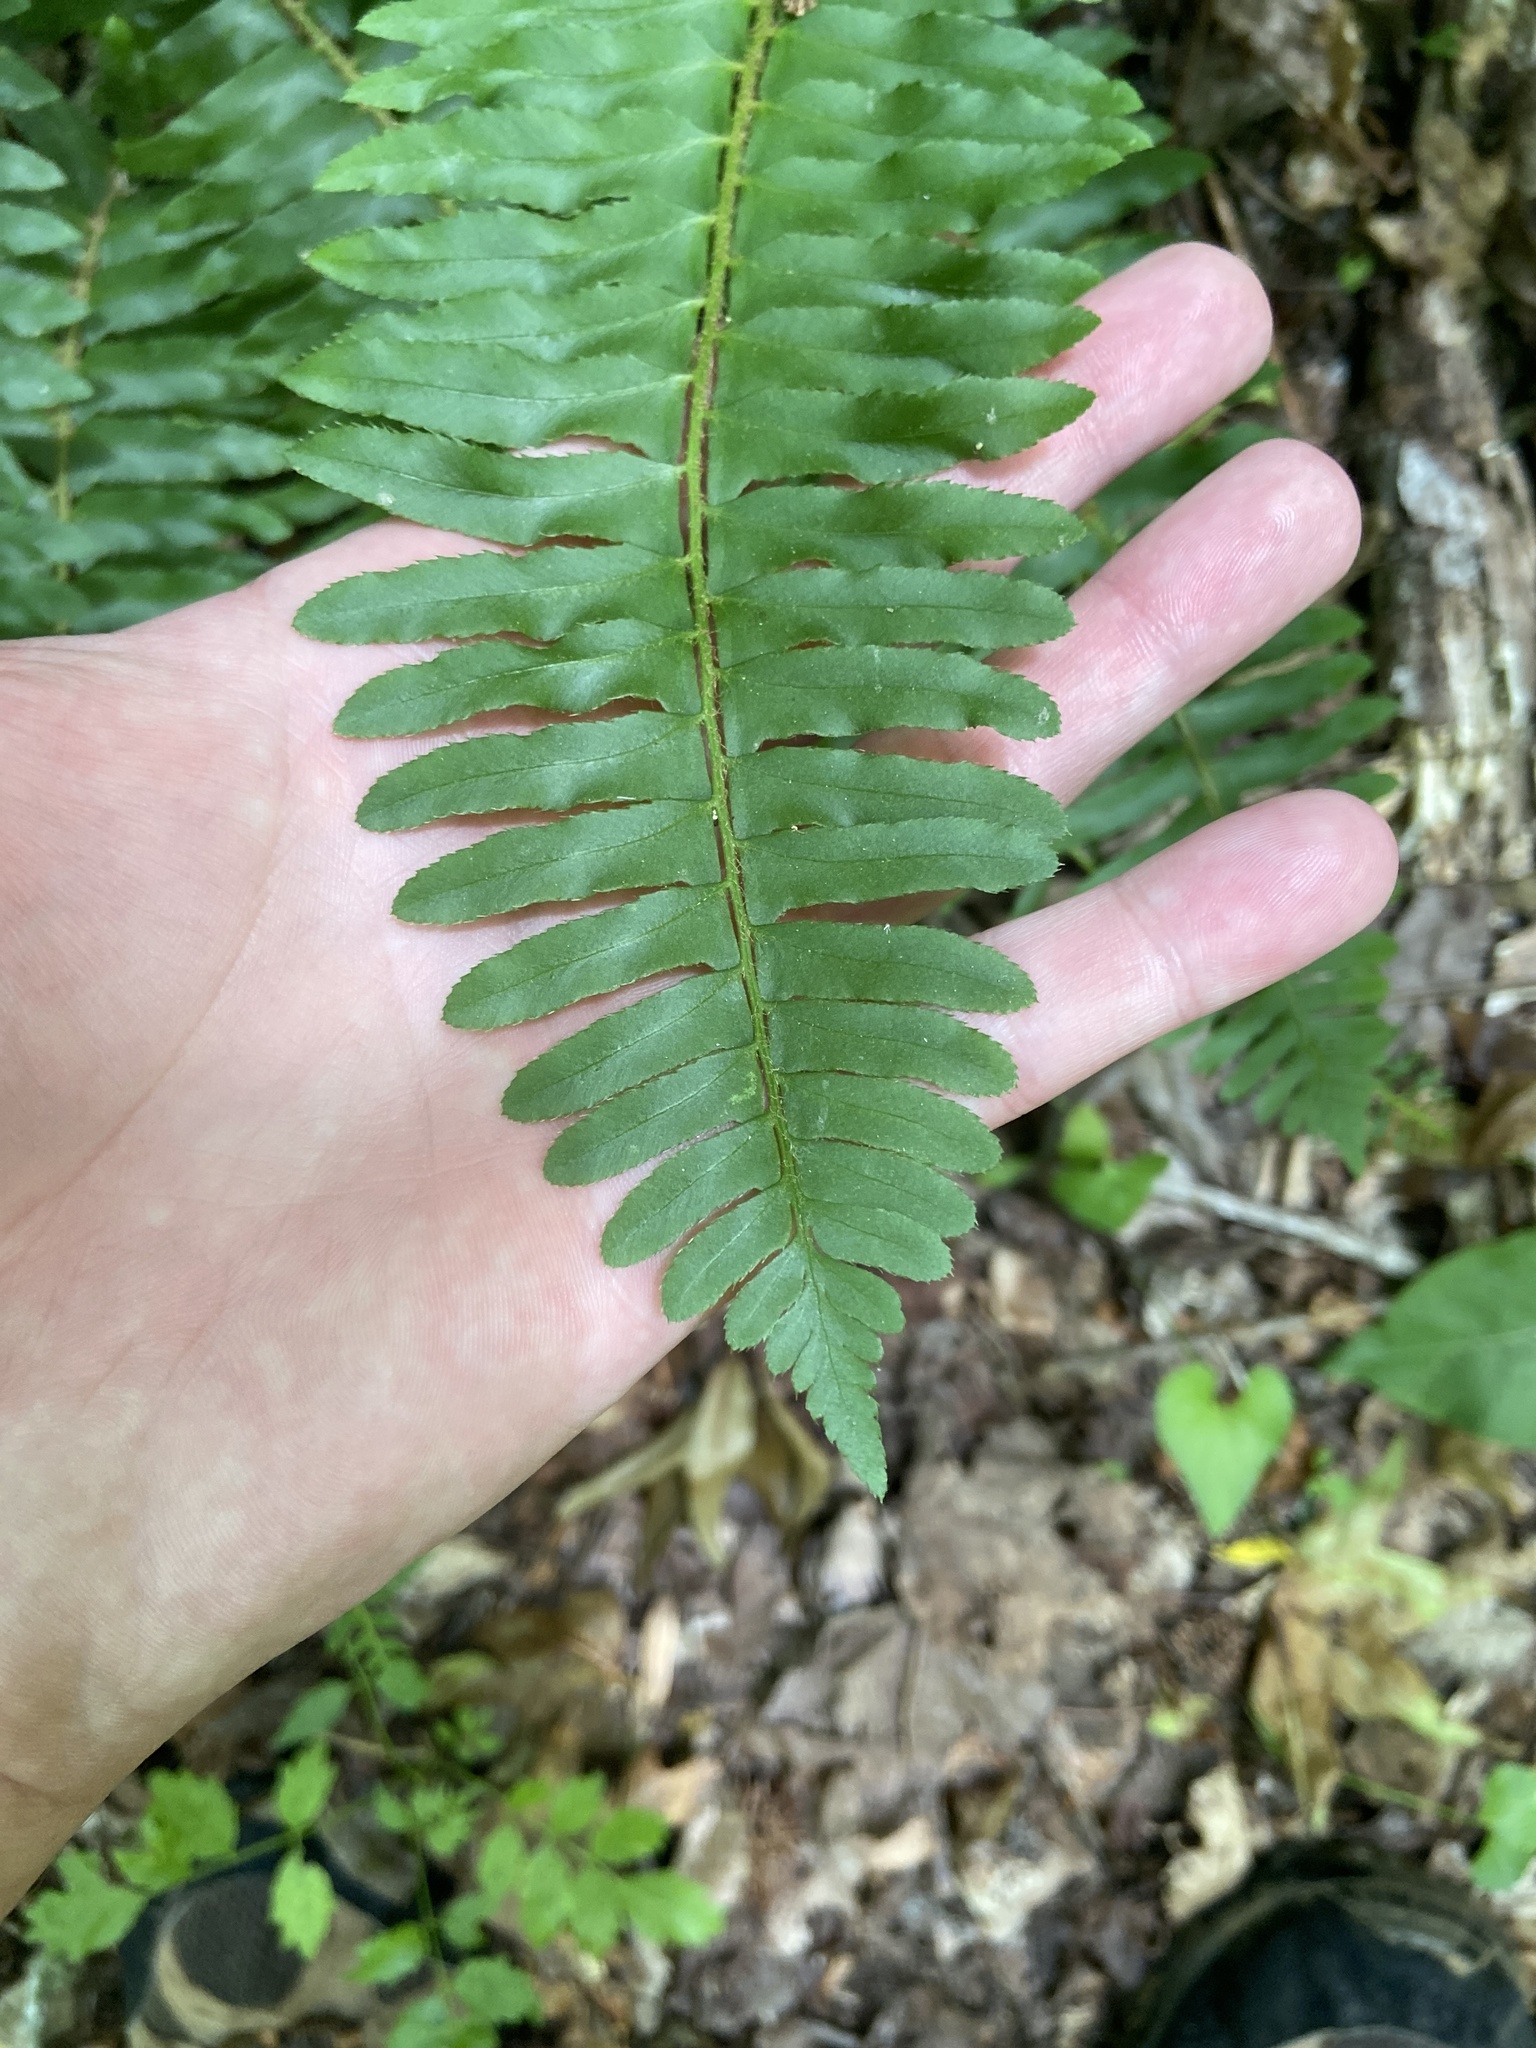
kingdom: Plantae
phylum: Tracheophyta
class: Polypodiopsida
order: Polypodiales
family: Dryopteridaceae
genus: Polystichum
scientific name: Polystichum acrostichoides
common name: Christmas fern
